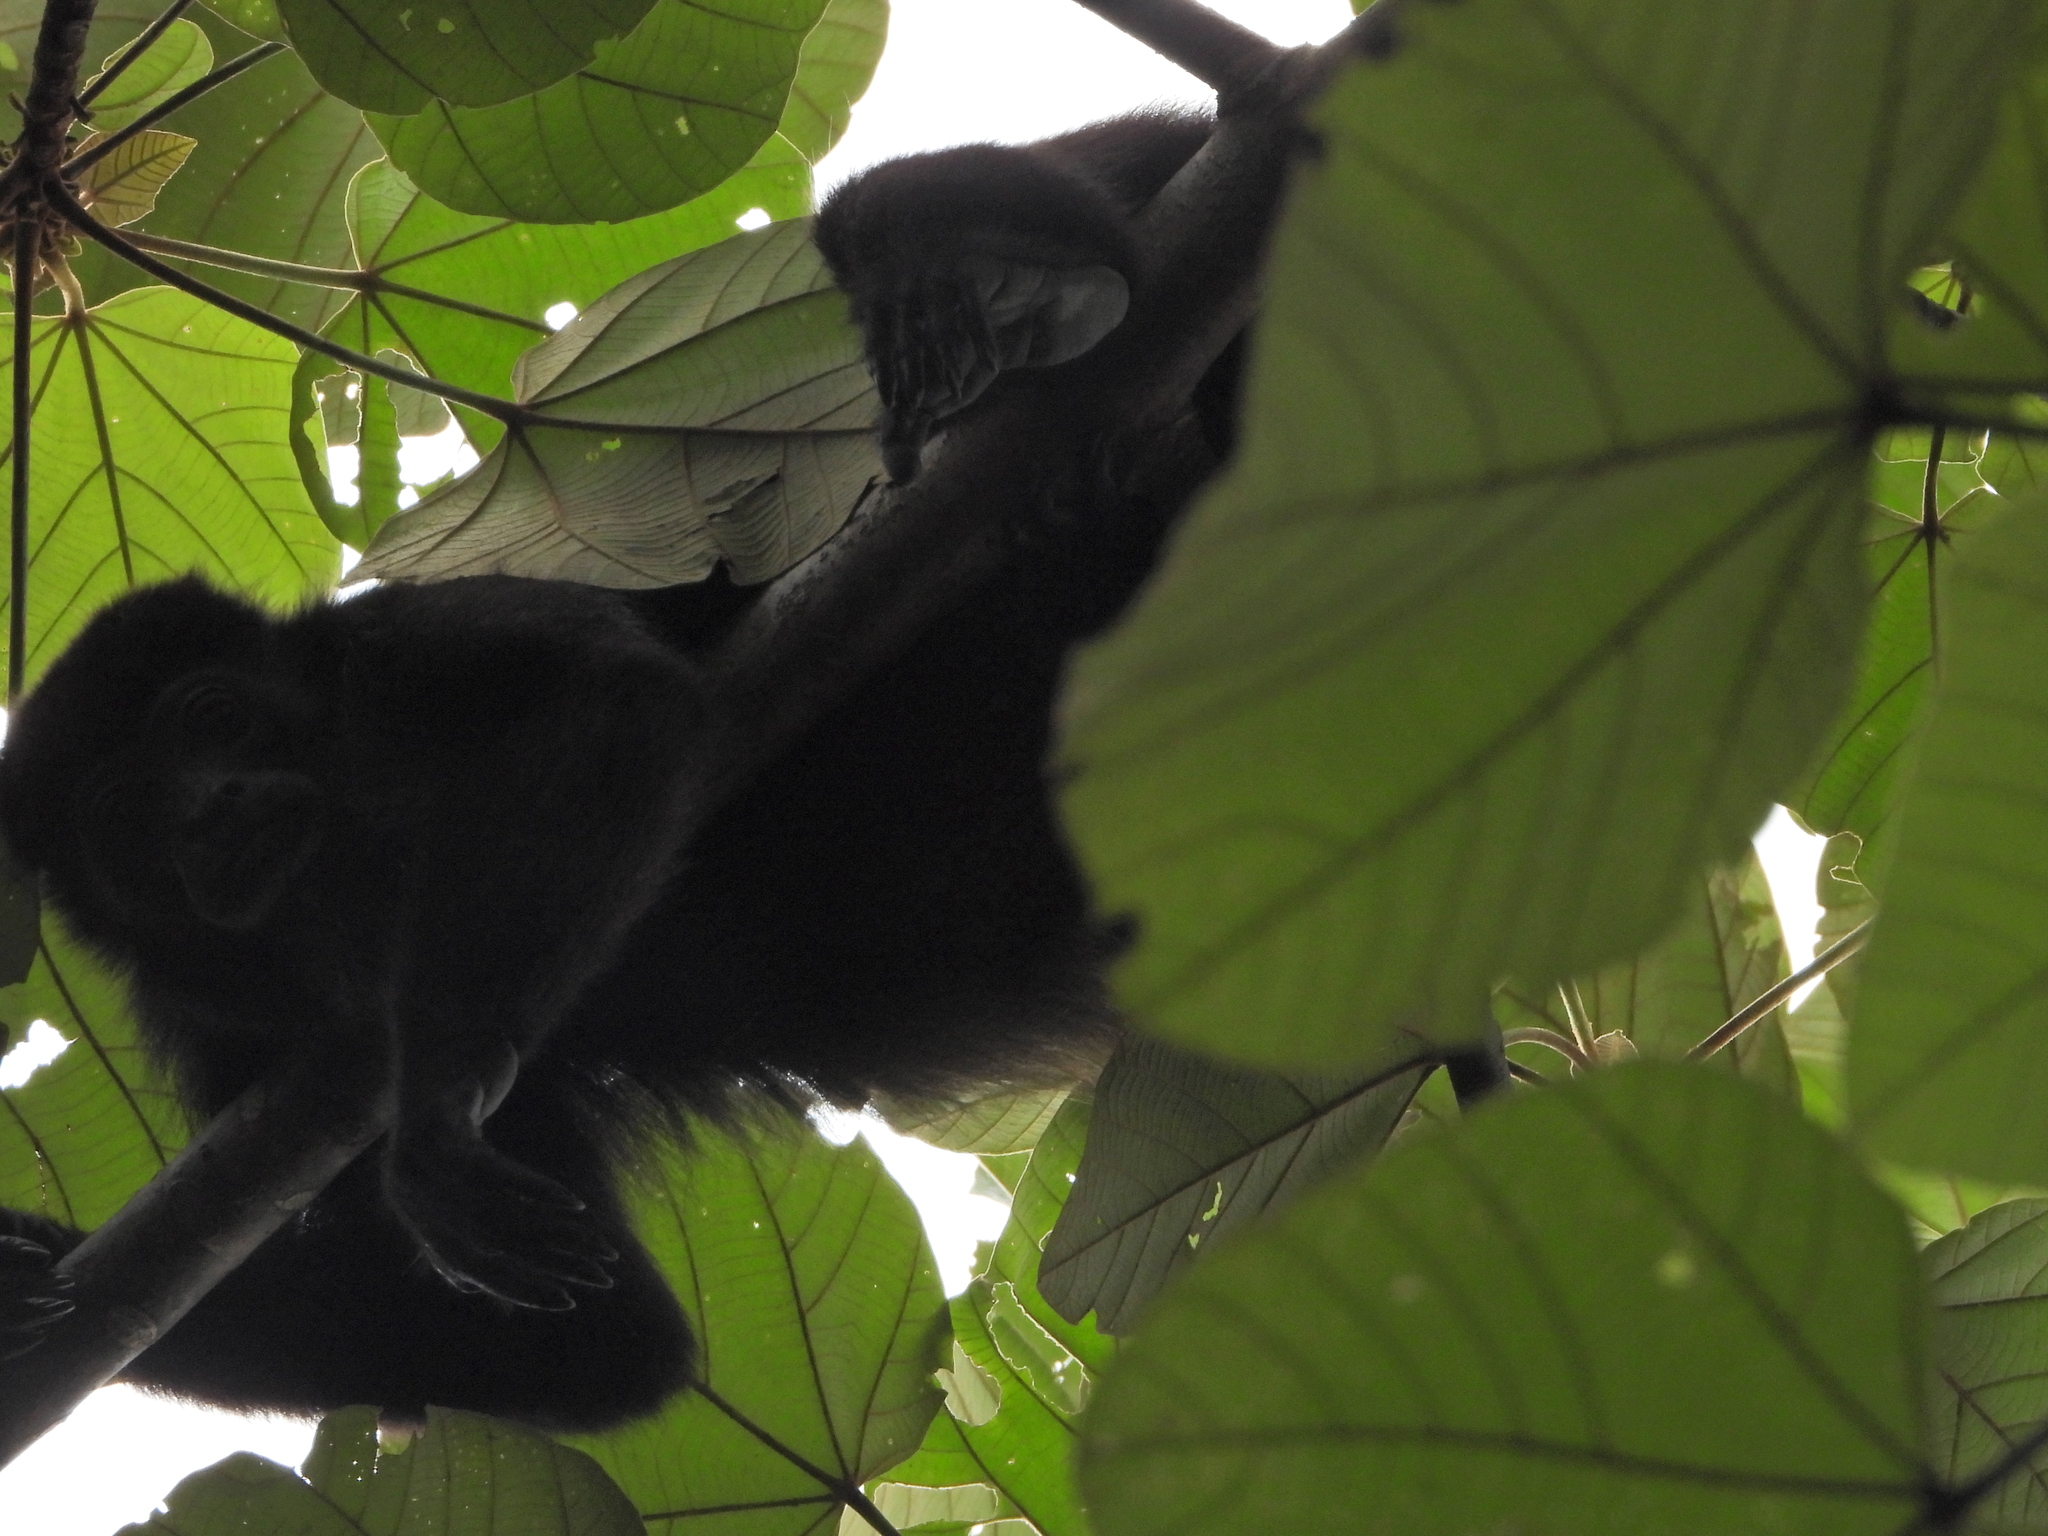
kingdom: Animalia
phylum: Chordata
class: Mammalia
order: Primates
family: Atelidae
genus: Alouatta
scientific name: Alouatta palliata
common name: Mantled howler
